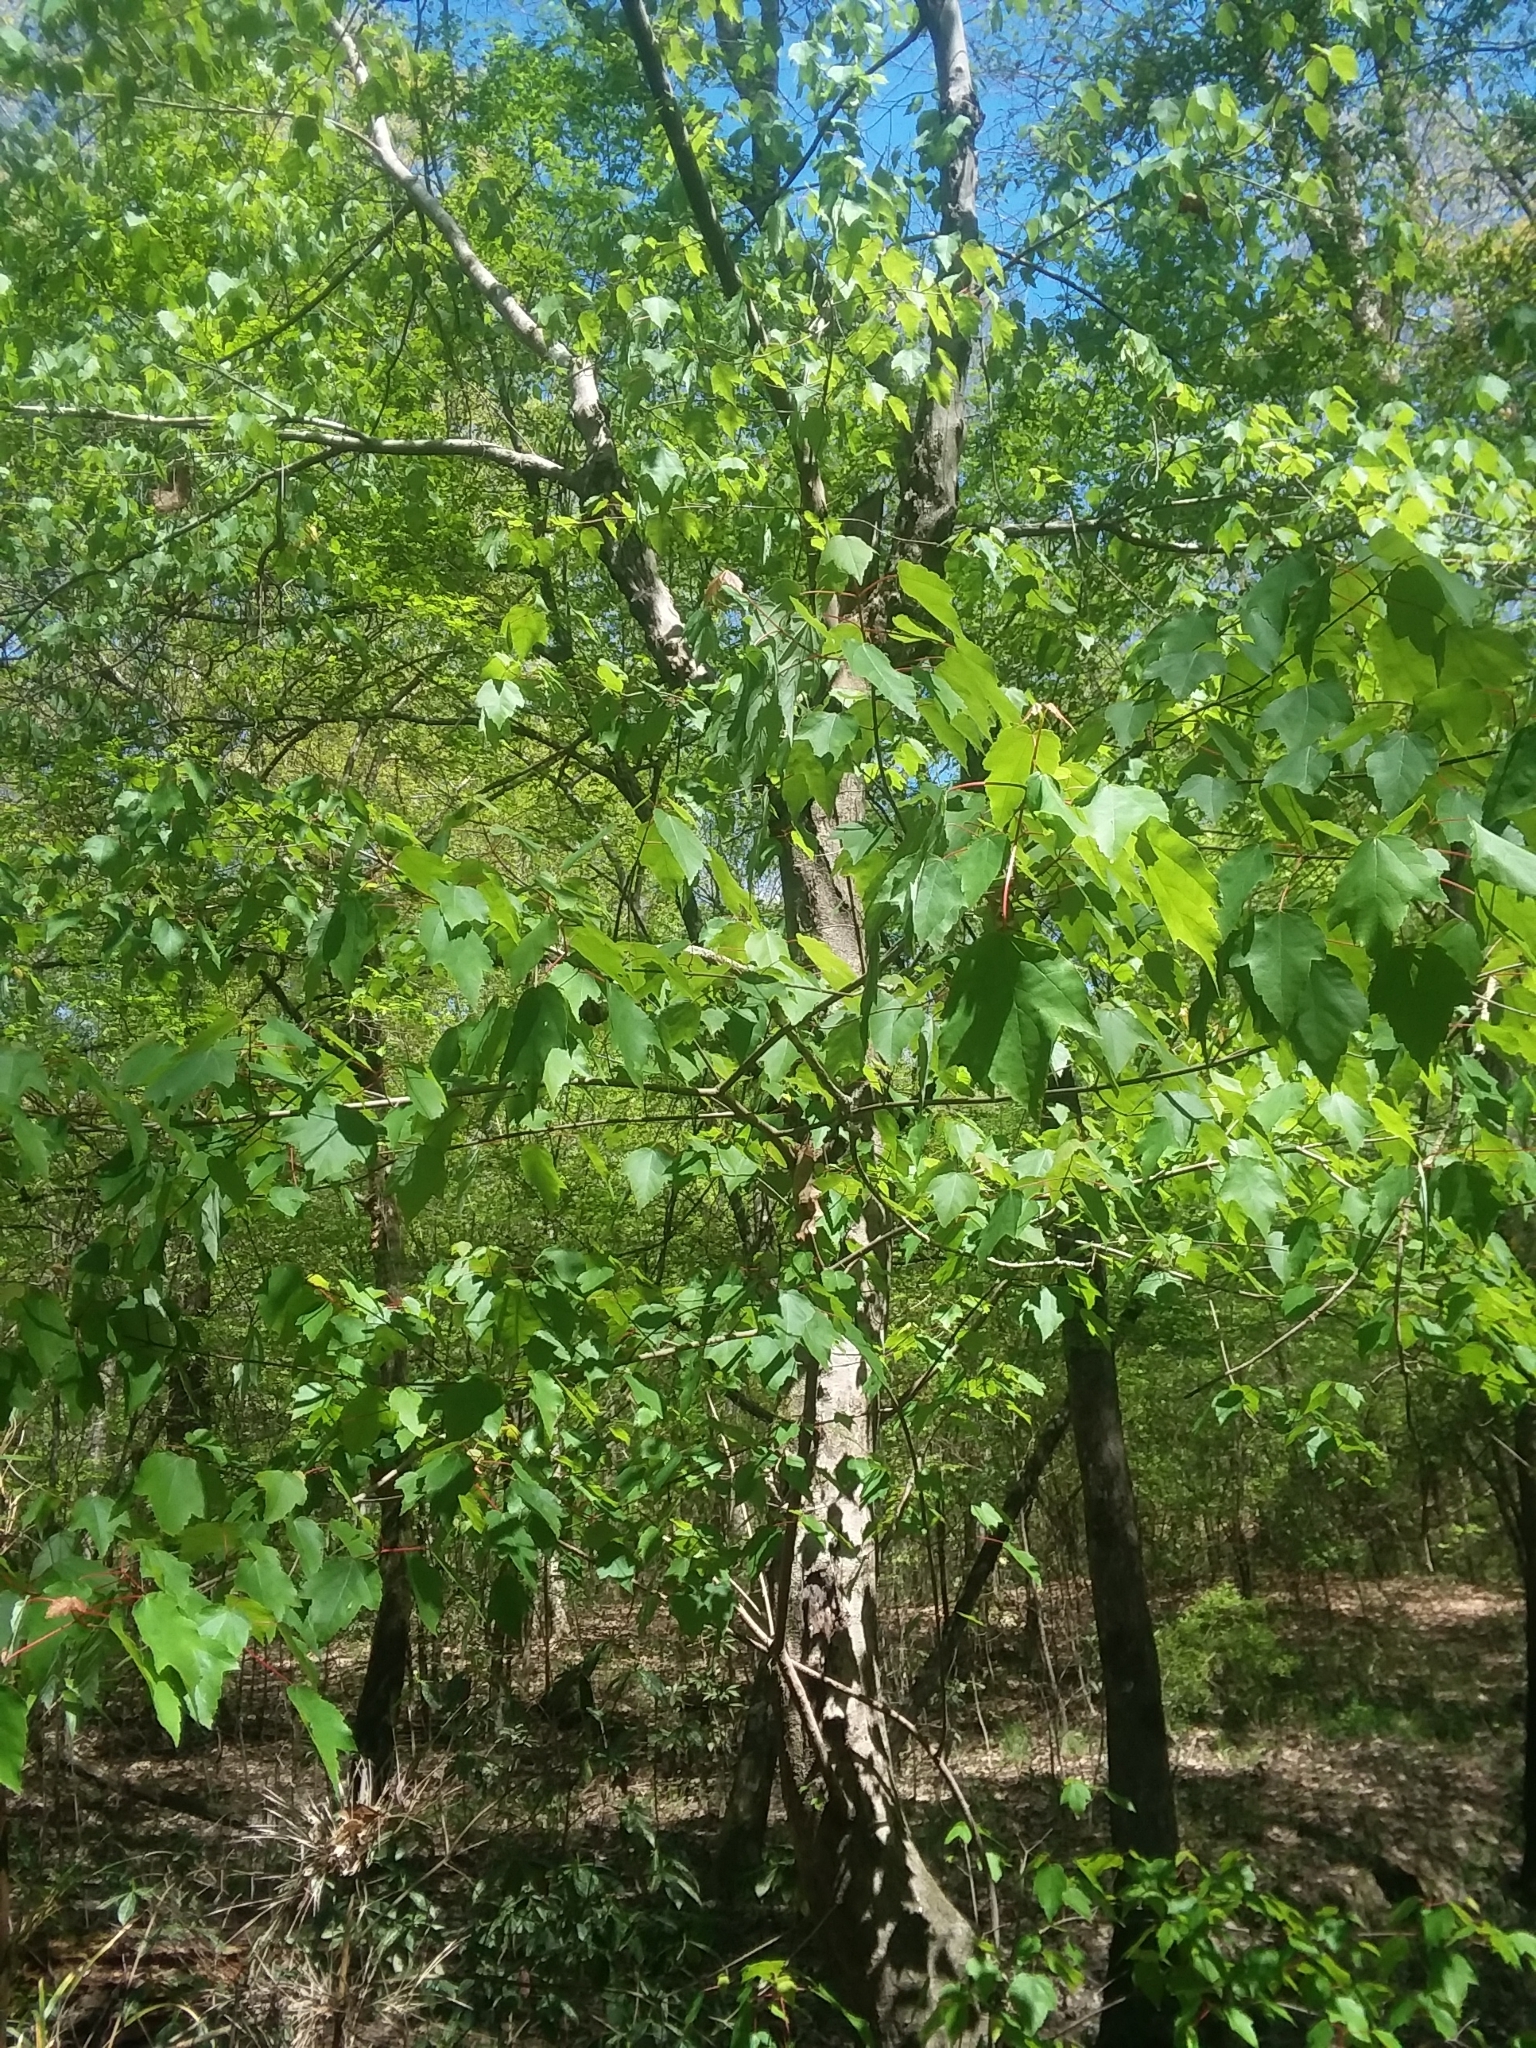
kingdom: Plantae
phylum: Tracheophyta
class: Magnoliopsida
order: Sapindales
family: Sapindaceae
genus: Acer
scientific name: Acer rubrum
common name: Red maple
